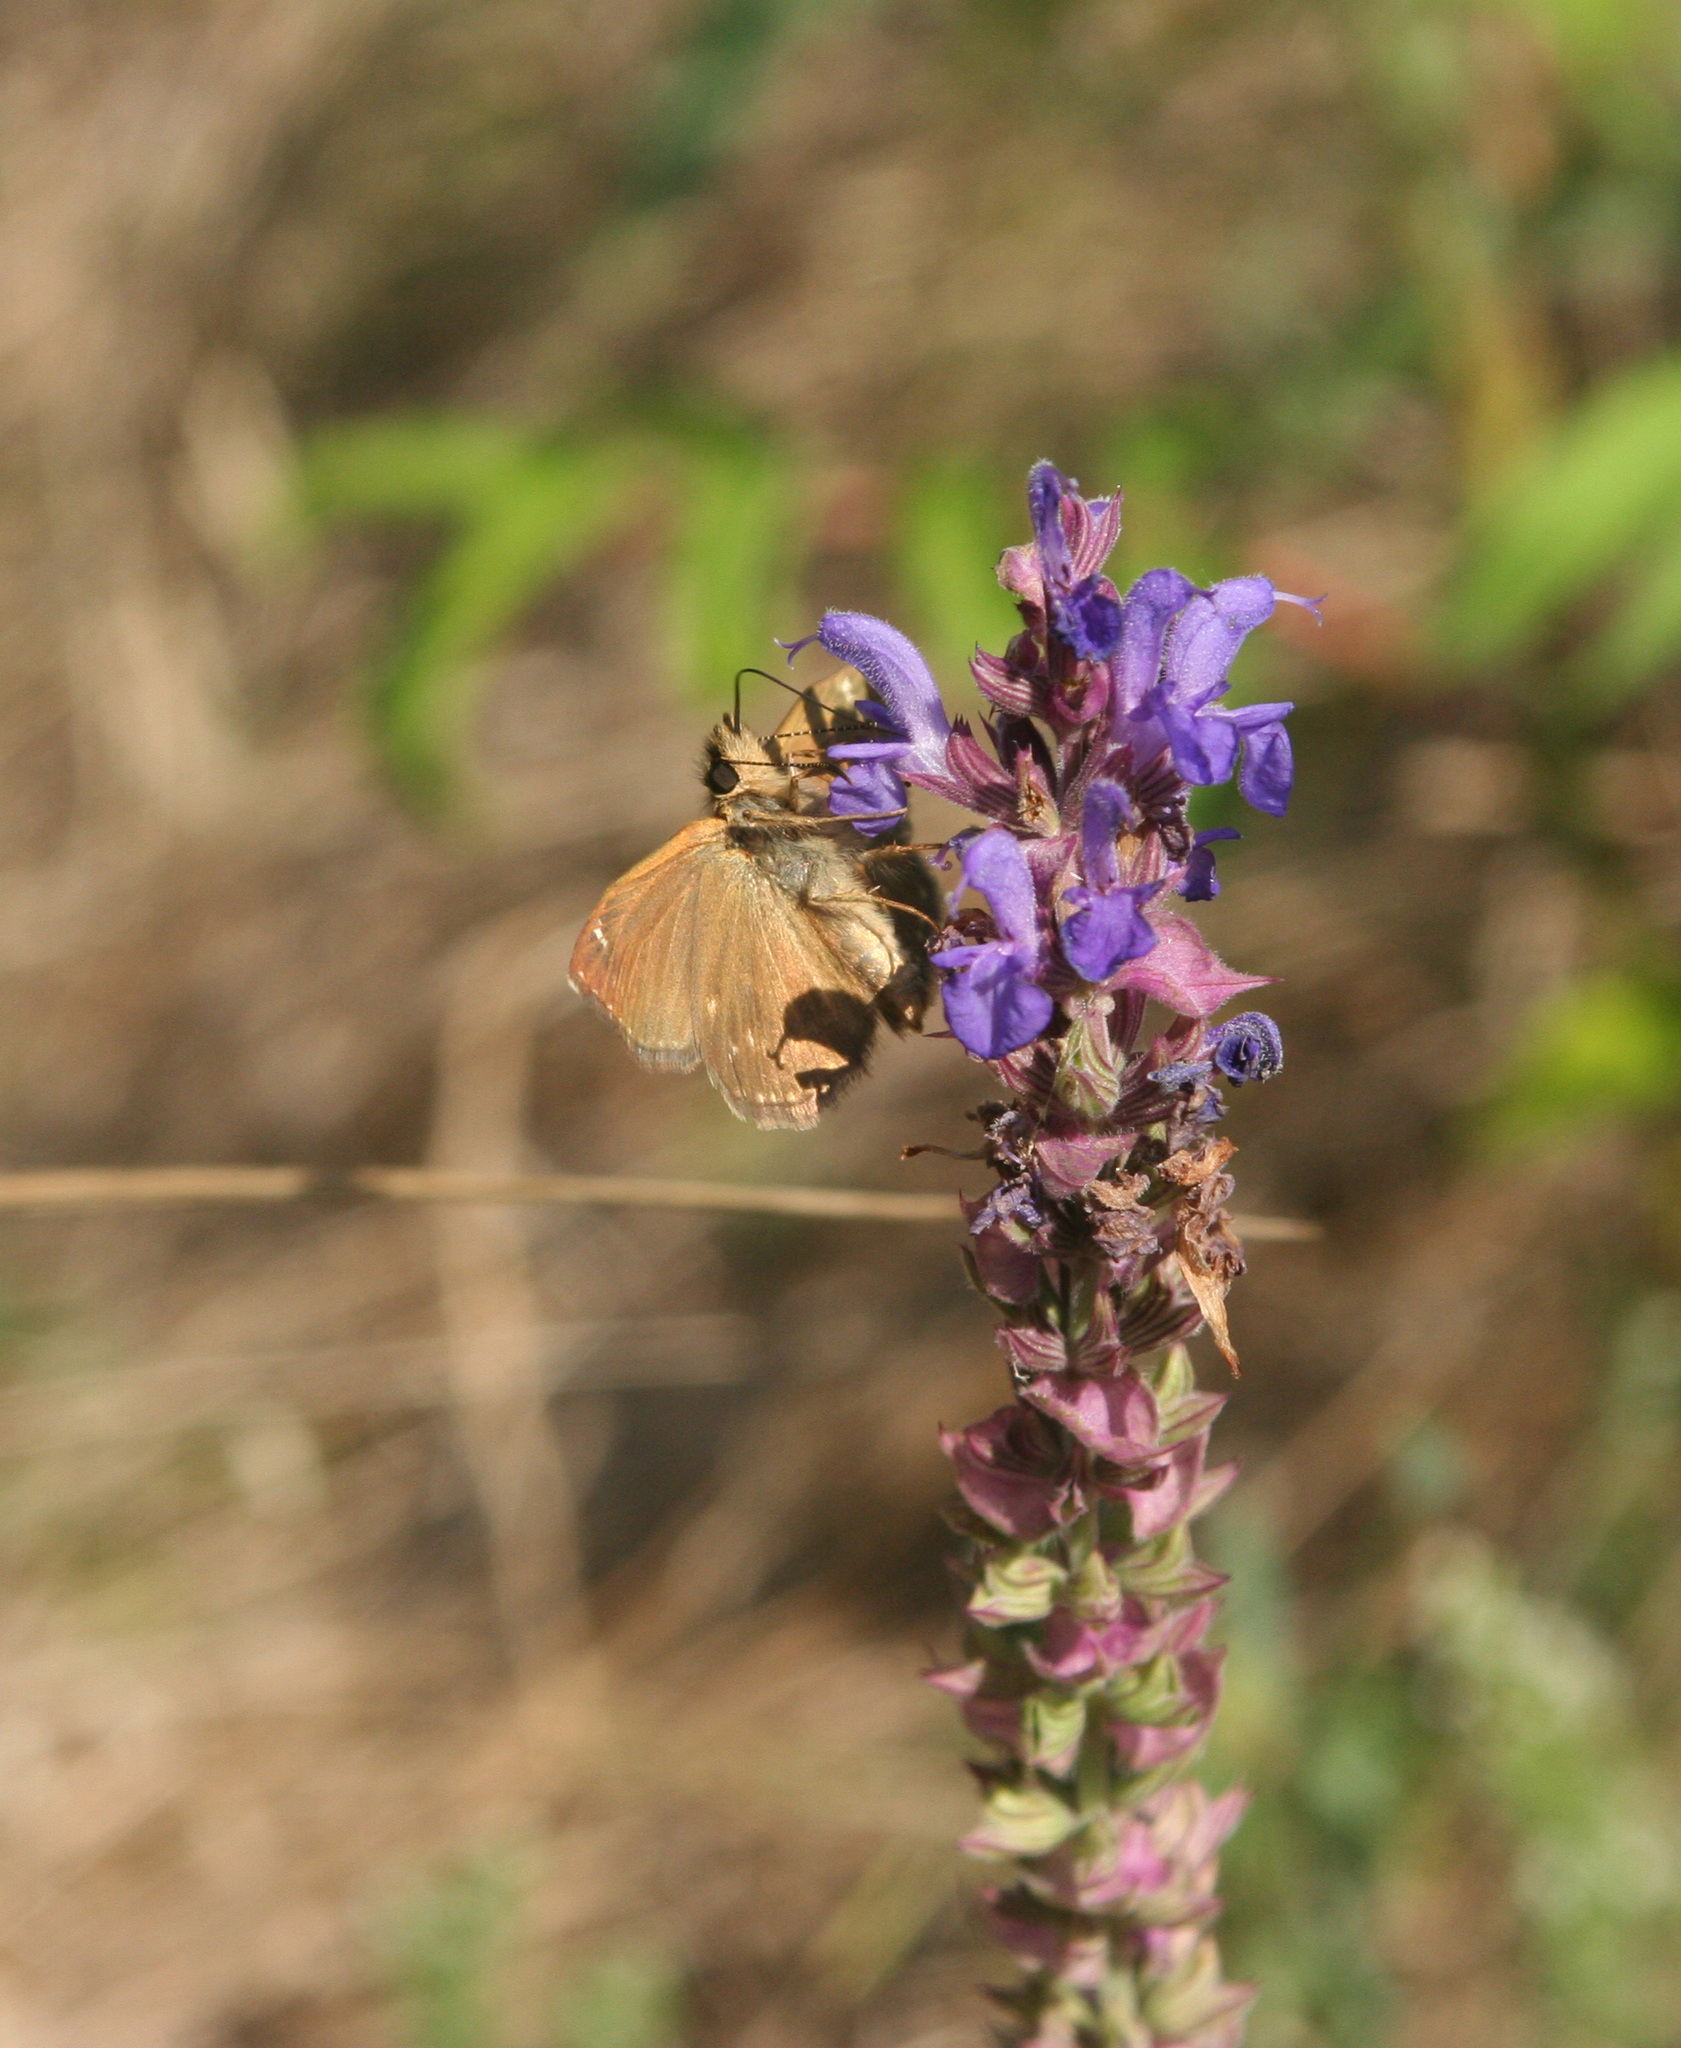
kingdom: Animalia
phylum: Arthropoda
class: Insecta
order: Lepidoptera
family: Hesperiidae
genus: Erynnis
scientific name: Erynnis tages
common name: Dingy skipper
